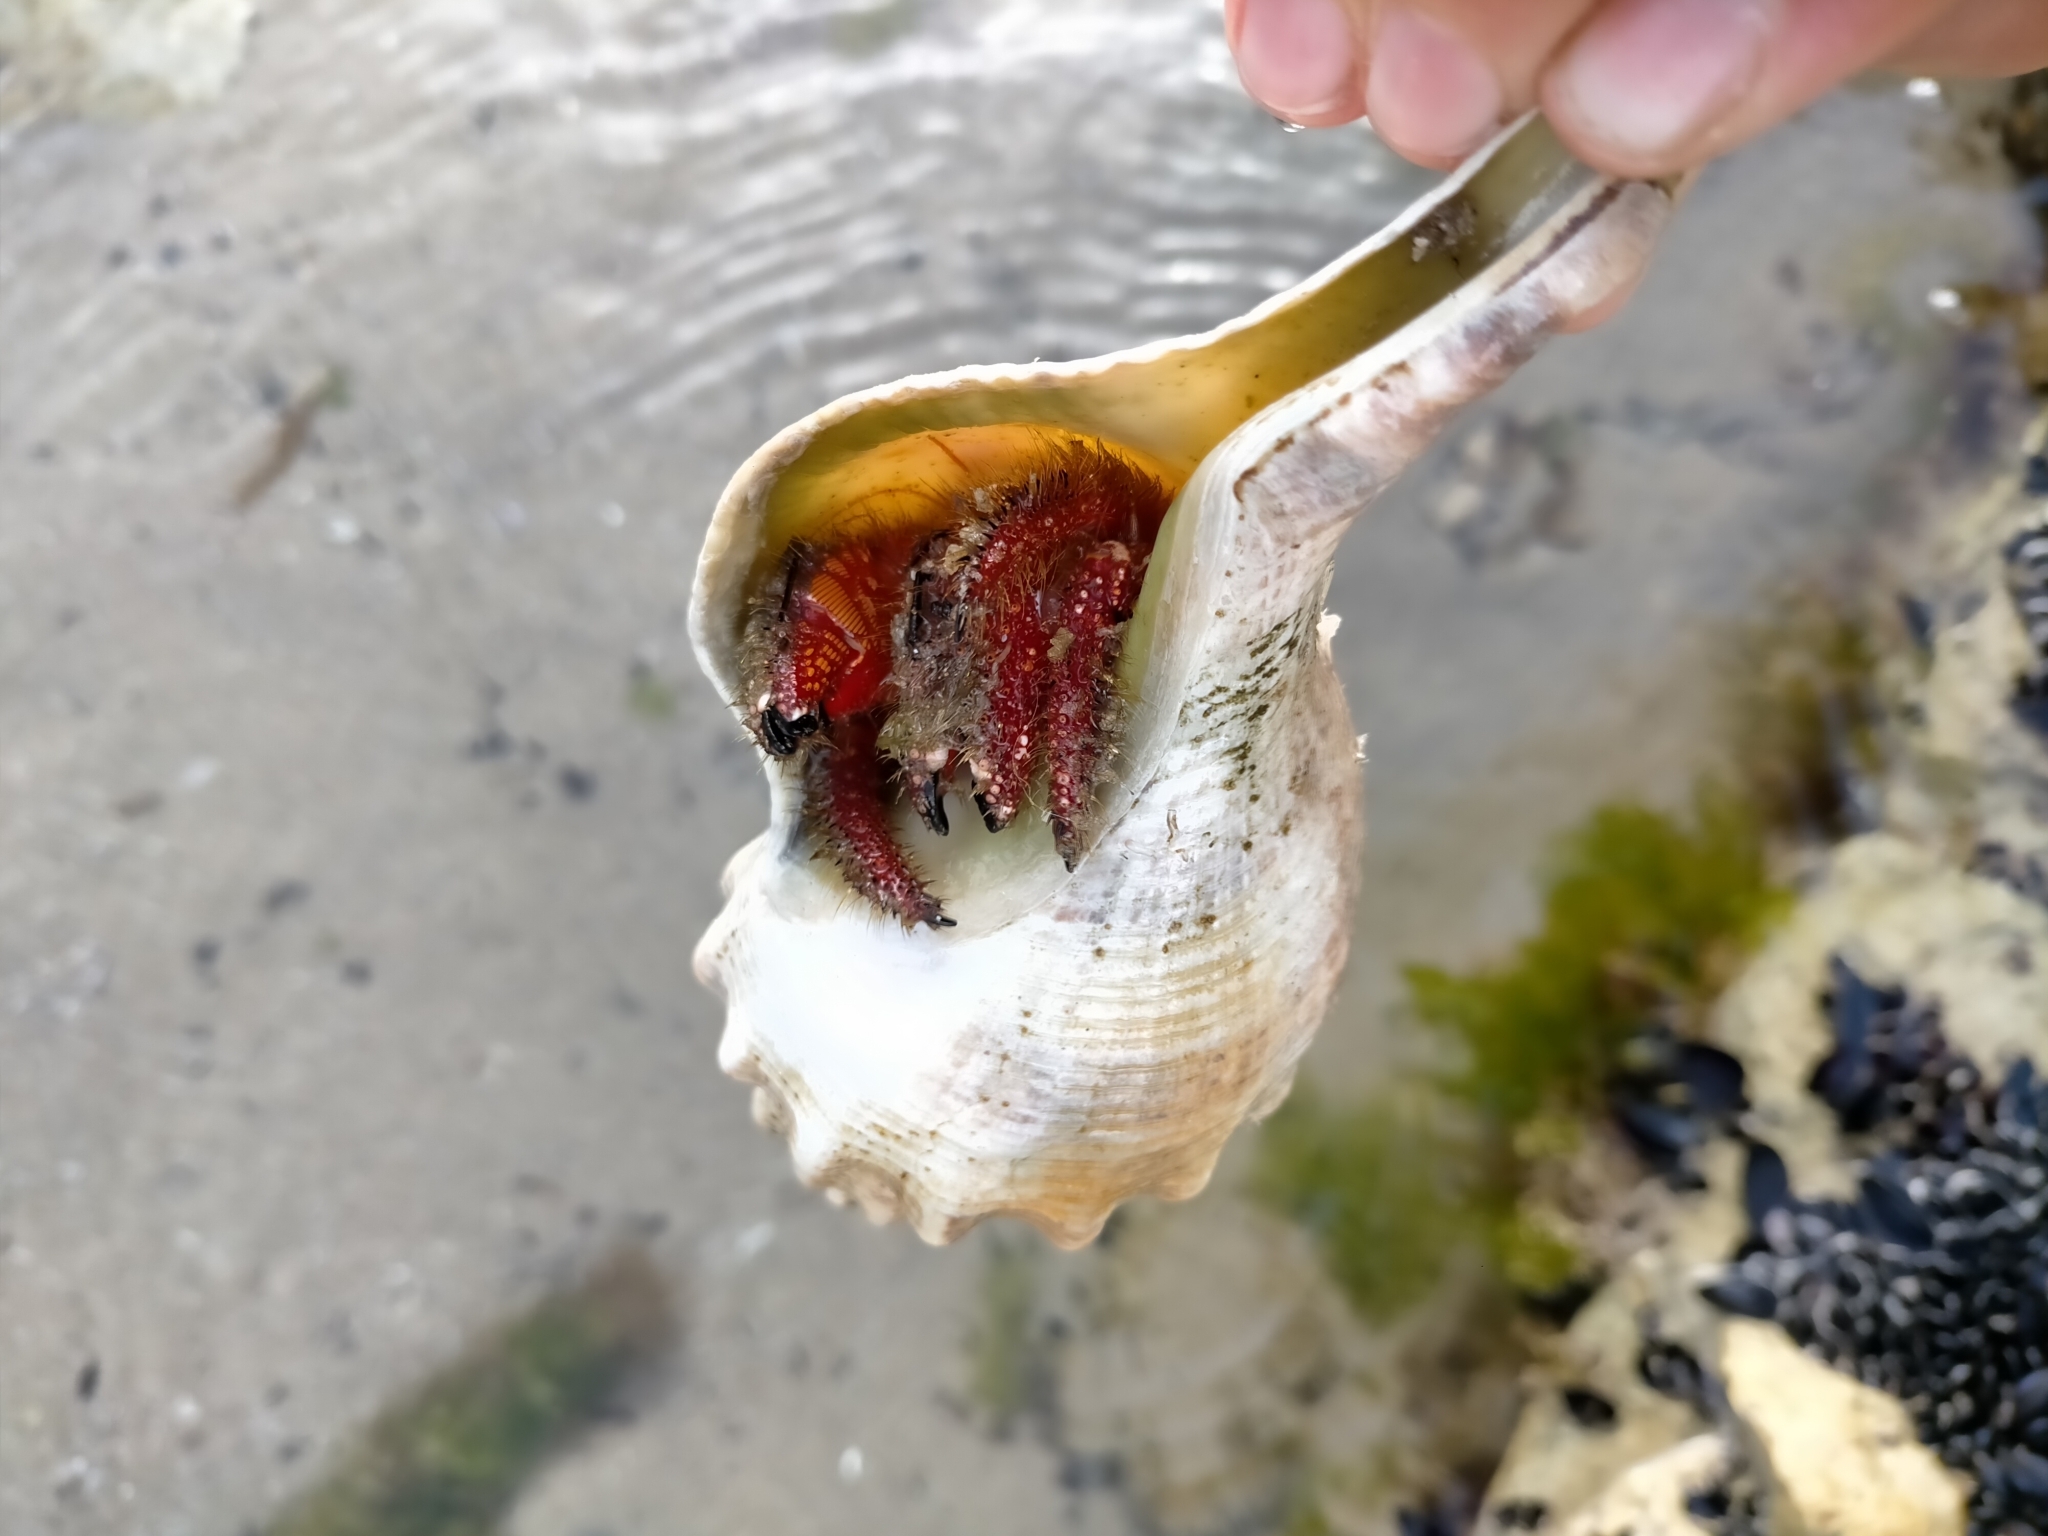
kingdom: Animalia
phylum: Arthropoda
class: Malacostraca
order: Decapoda
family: Diogenidae
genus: Strigopagurus
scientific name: Strigopagurus strigimanus
